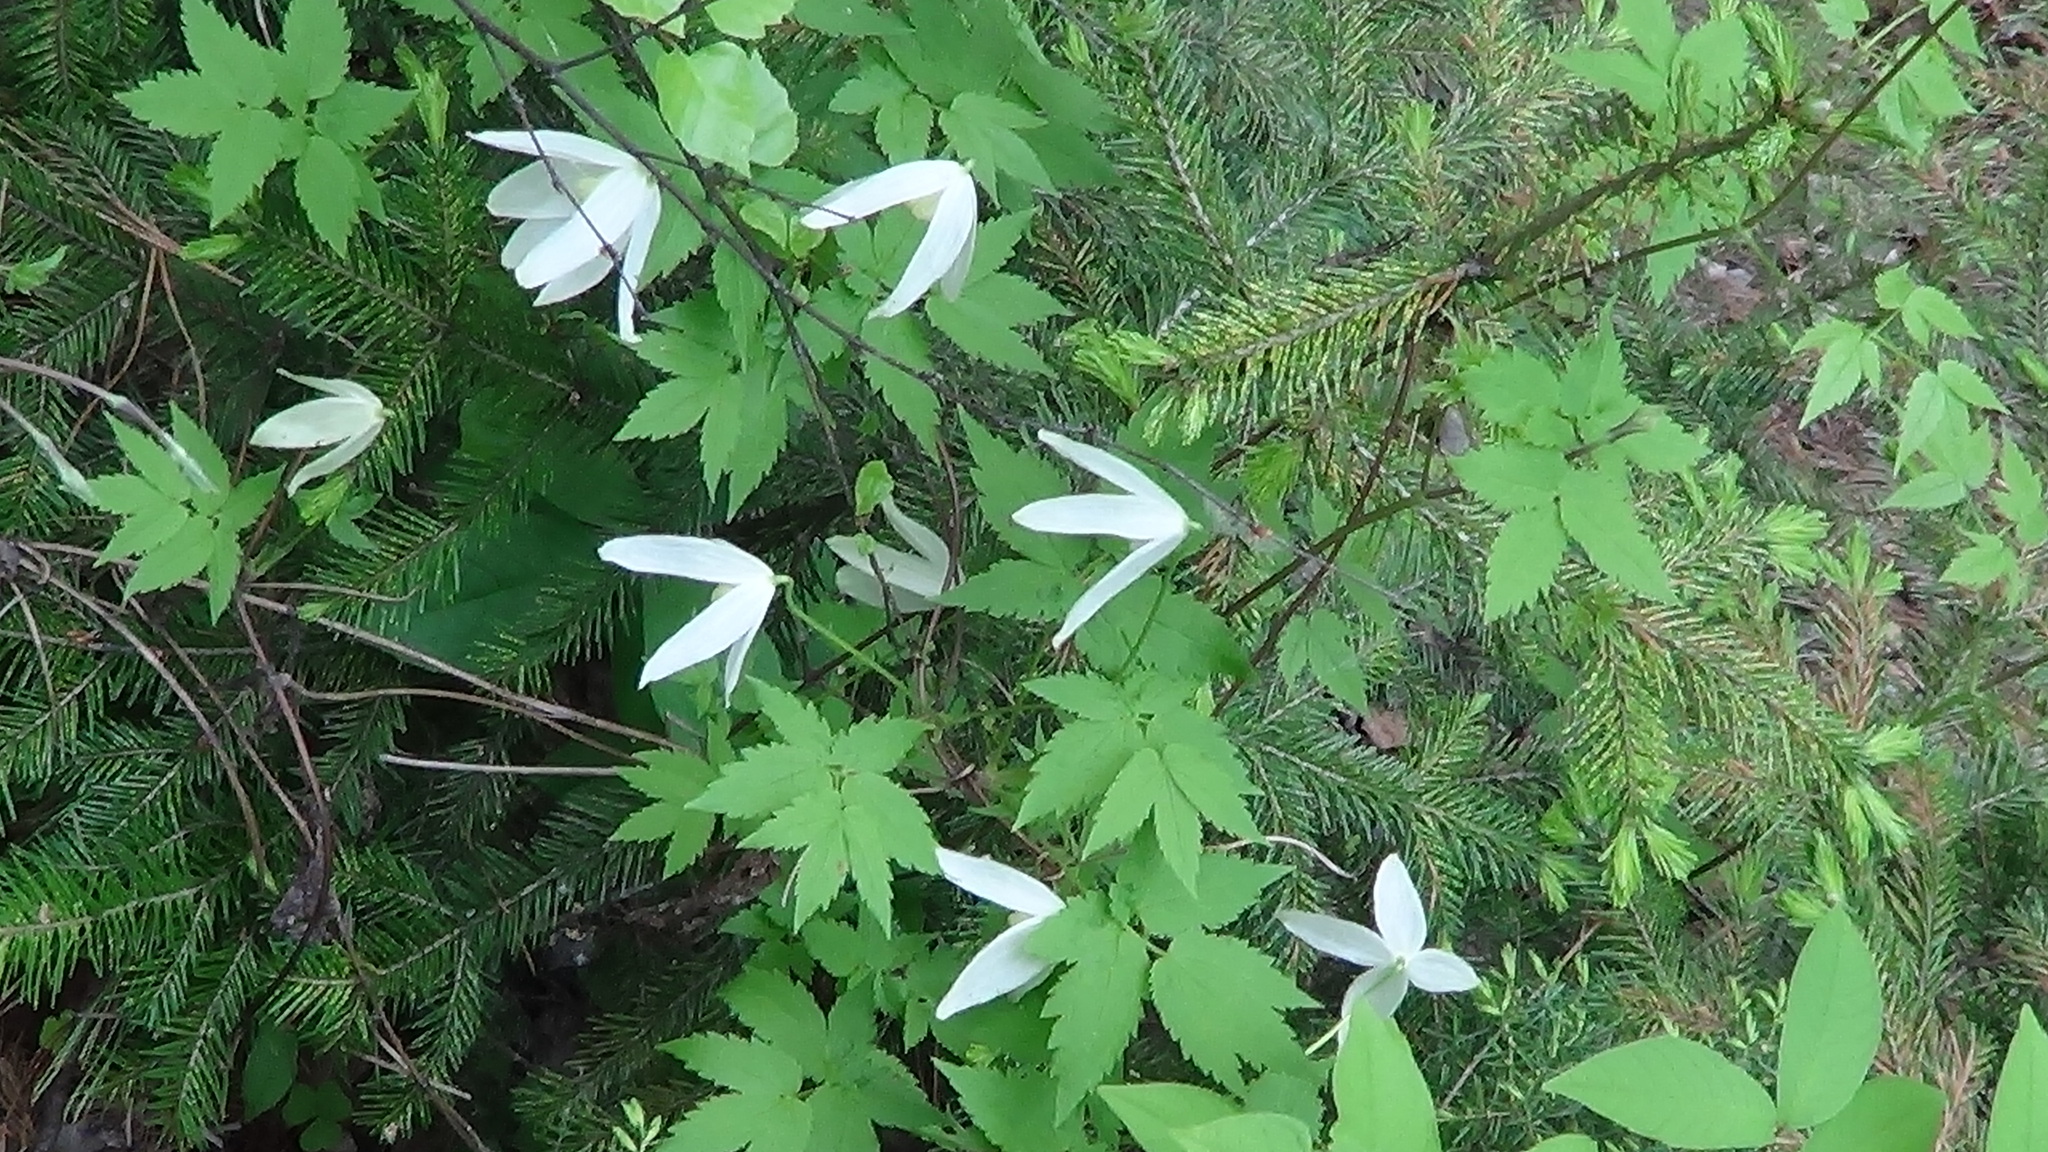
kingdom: Plantae
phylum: Tracheophyta
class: Magnoliopsida
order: Ranunculales
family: Ranunculaceae
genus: Clematis
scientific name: Clematis sibirica
